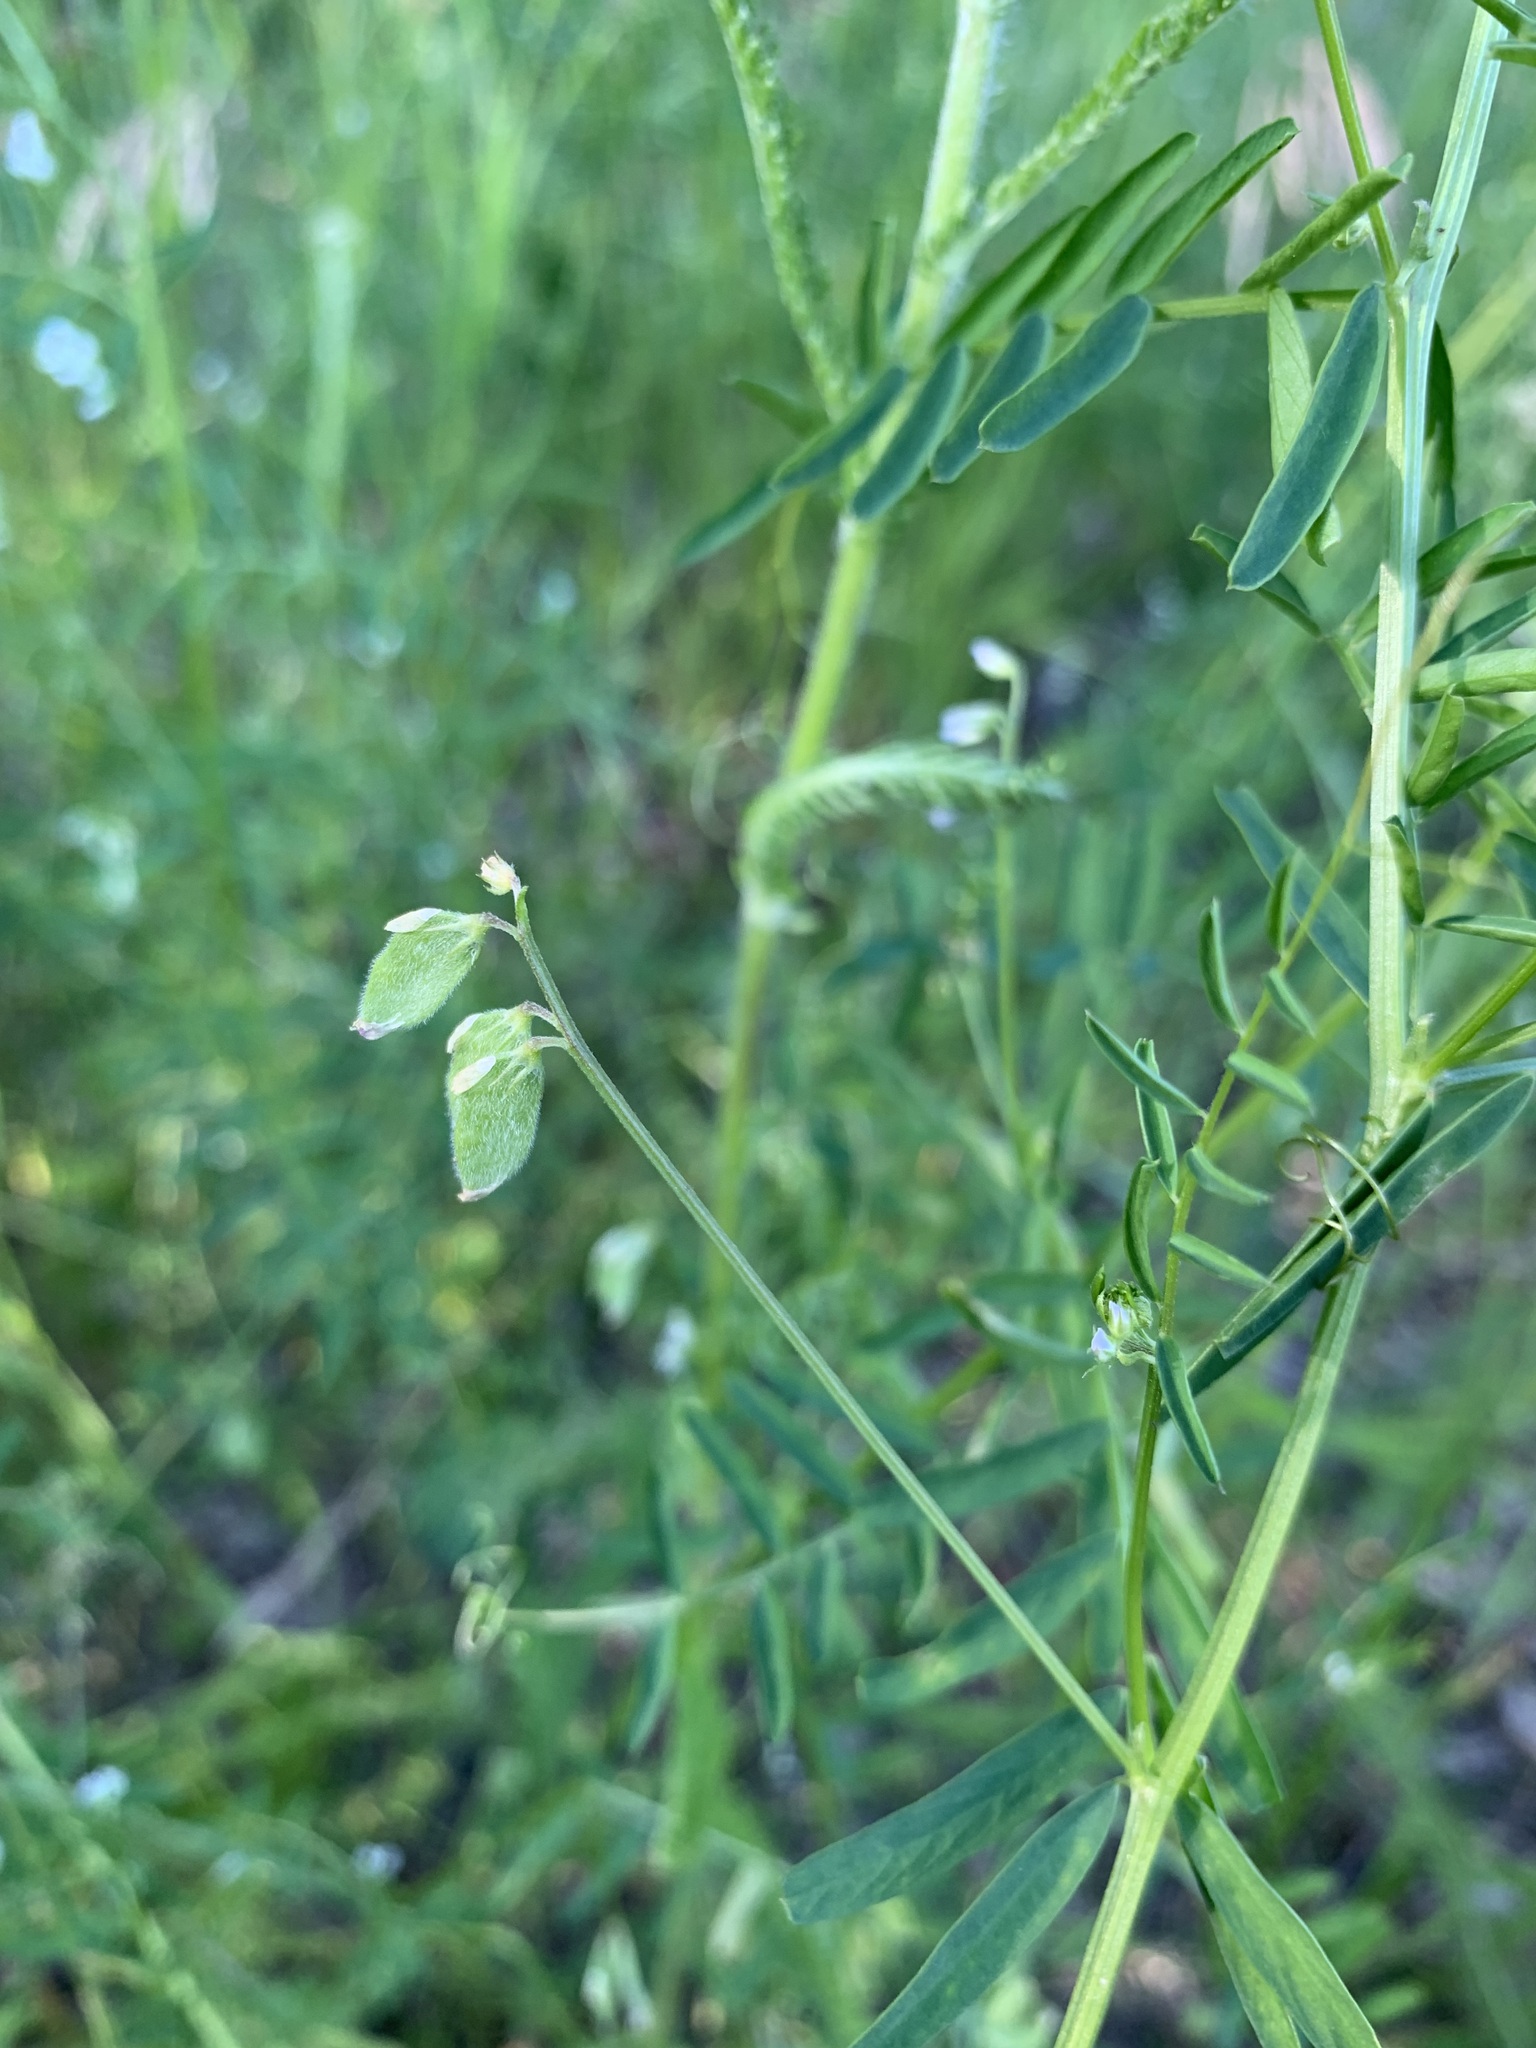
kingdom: Plantae
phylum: Tracheophyta
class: Magnoliopsida
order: Fabales
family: Fabaceae
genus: Vicia
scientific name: Vicia hirsuta
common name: Tiny vetch
